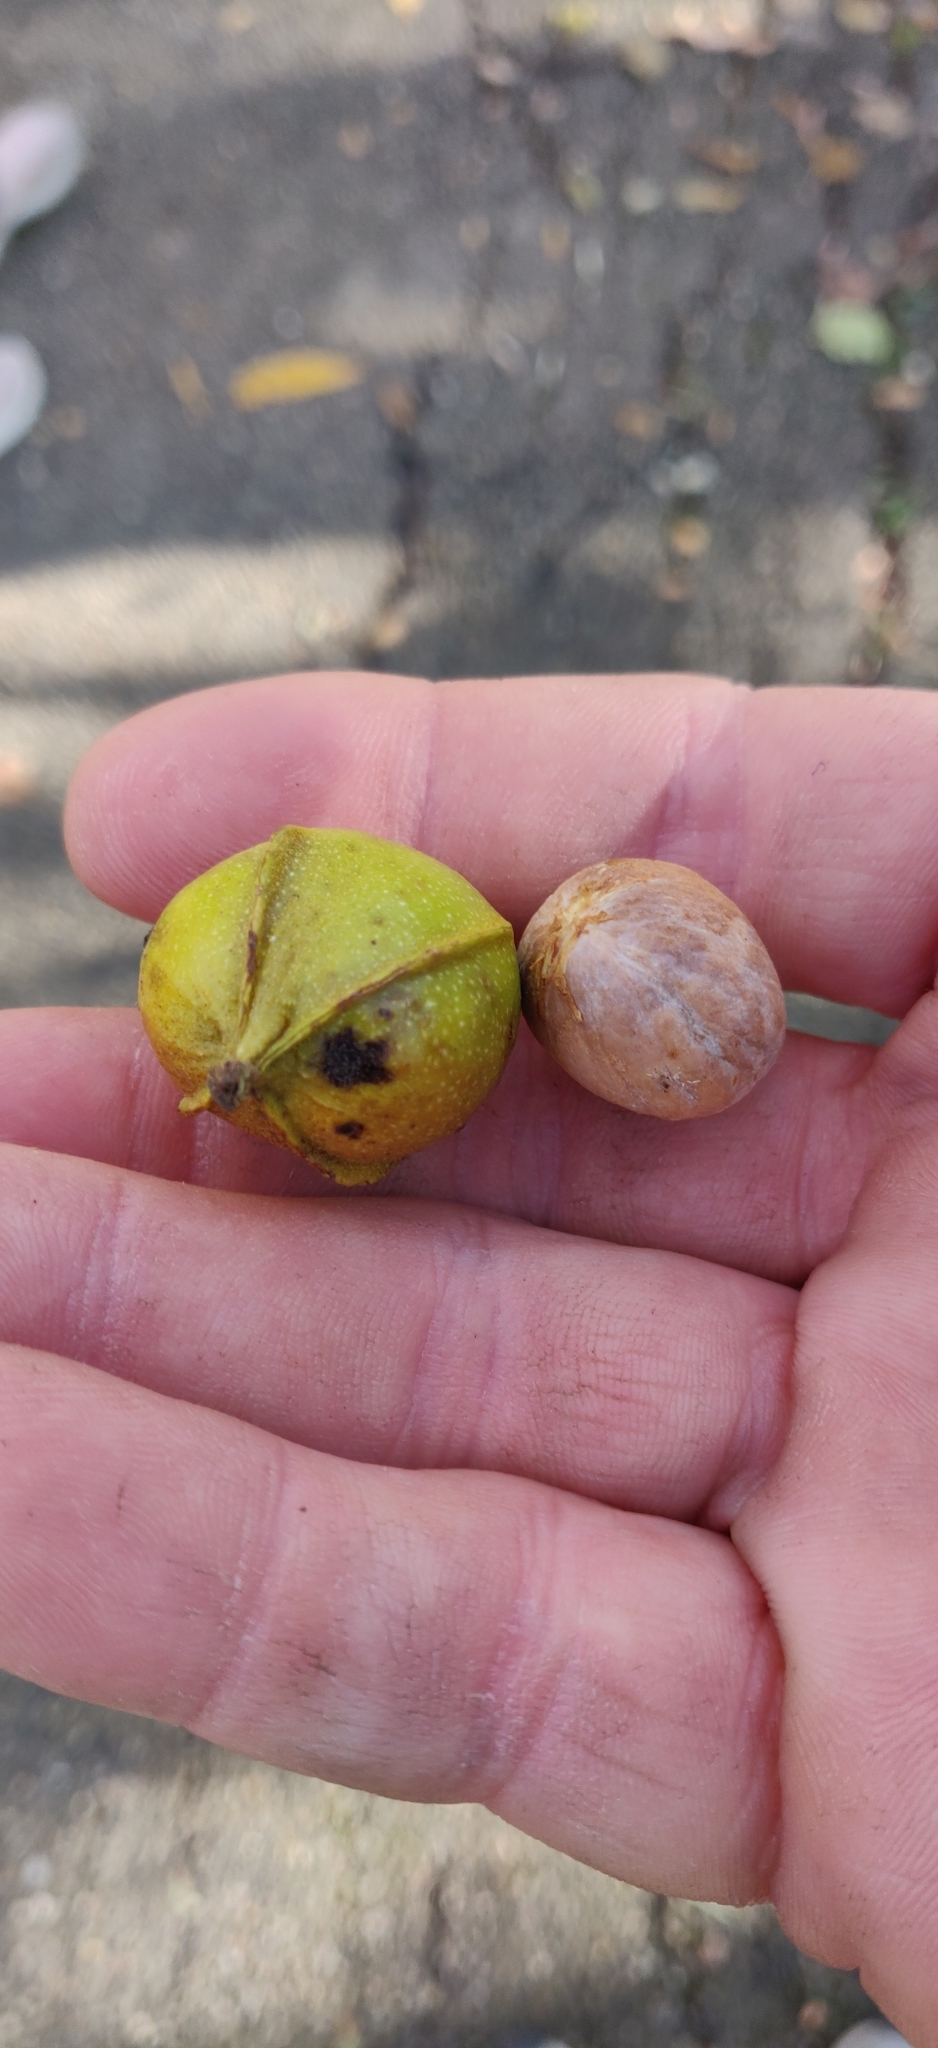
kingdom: Plantae
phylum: Tracheophyta
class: Magnoliopsida
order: Fagales
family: Juglandaceae
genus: Carya
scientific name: Carya cordiformis
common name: Bitternut hickory
